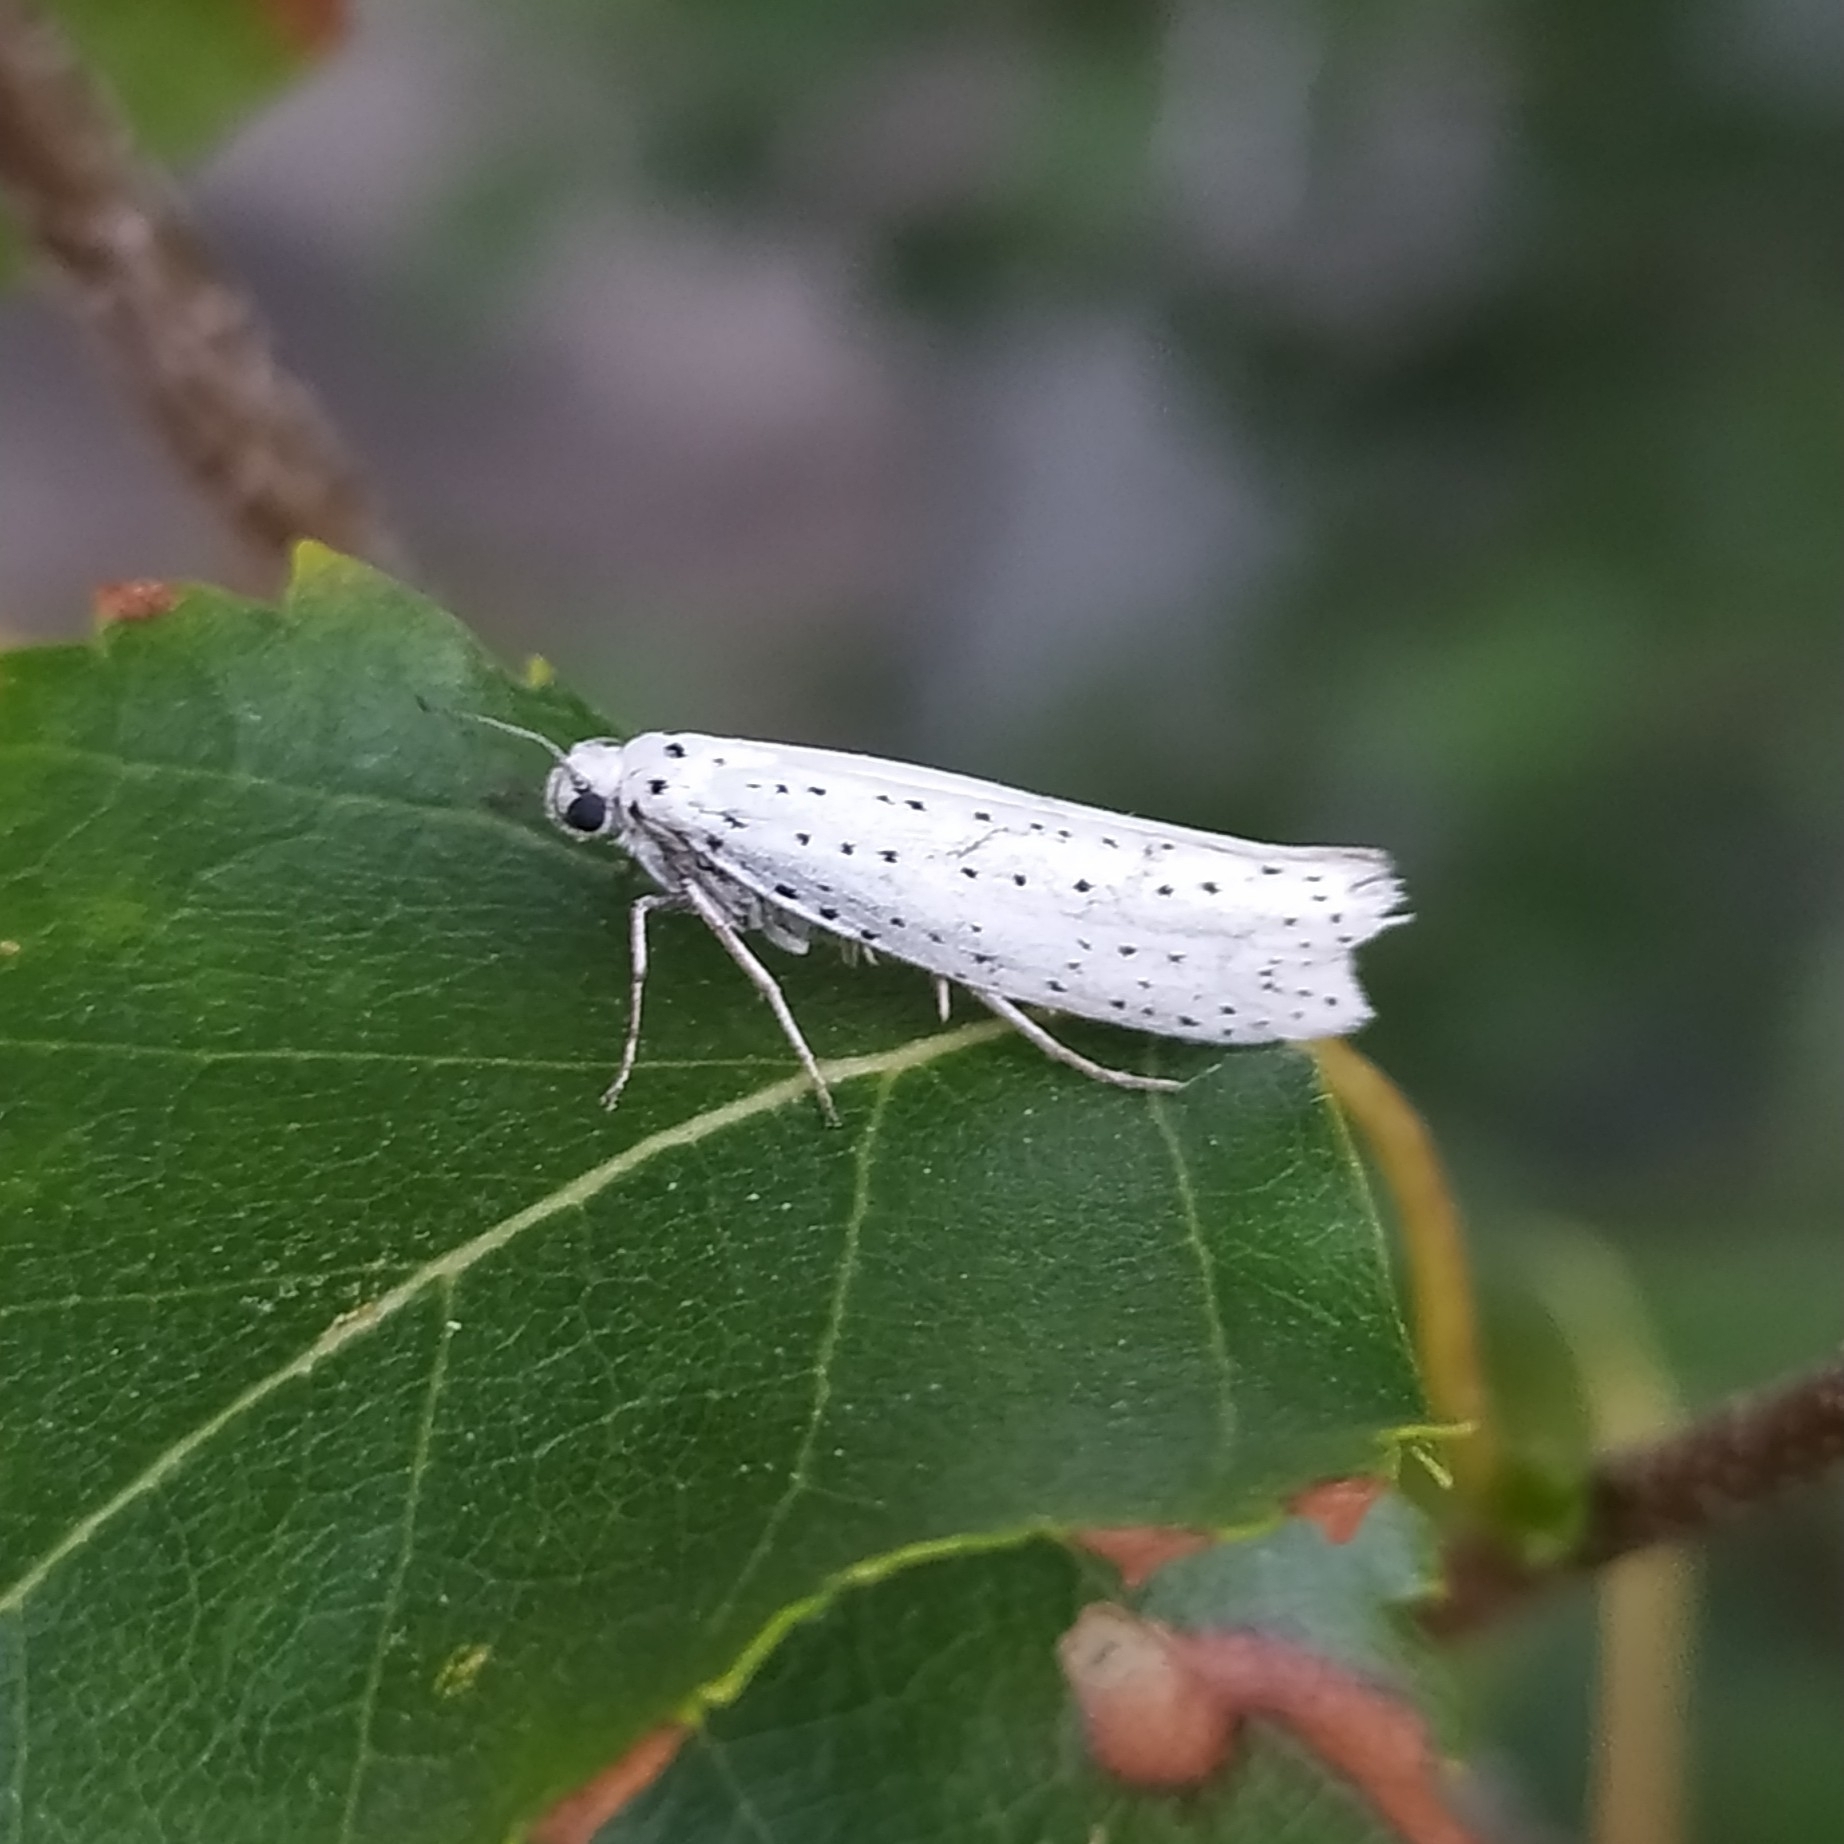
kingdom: Animalia
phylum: Arthropoda
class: Insecta
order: Lepidoptera
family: Yponomeutidae
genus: Yponomeuta
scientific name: Yponomeuta evonymella
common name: Bird-cherry ermine
